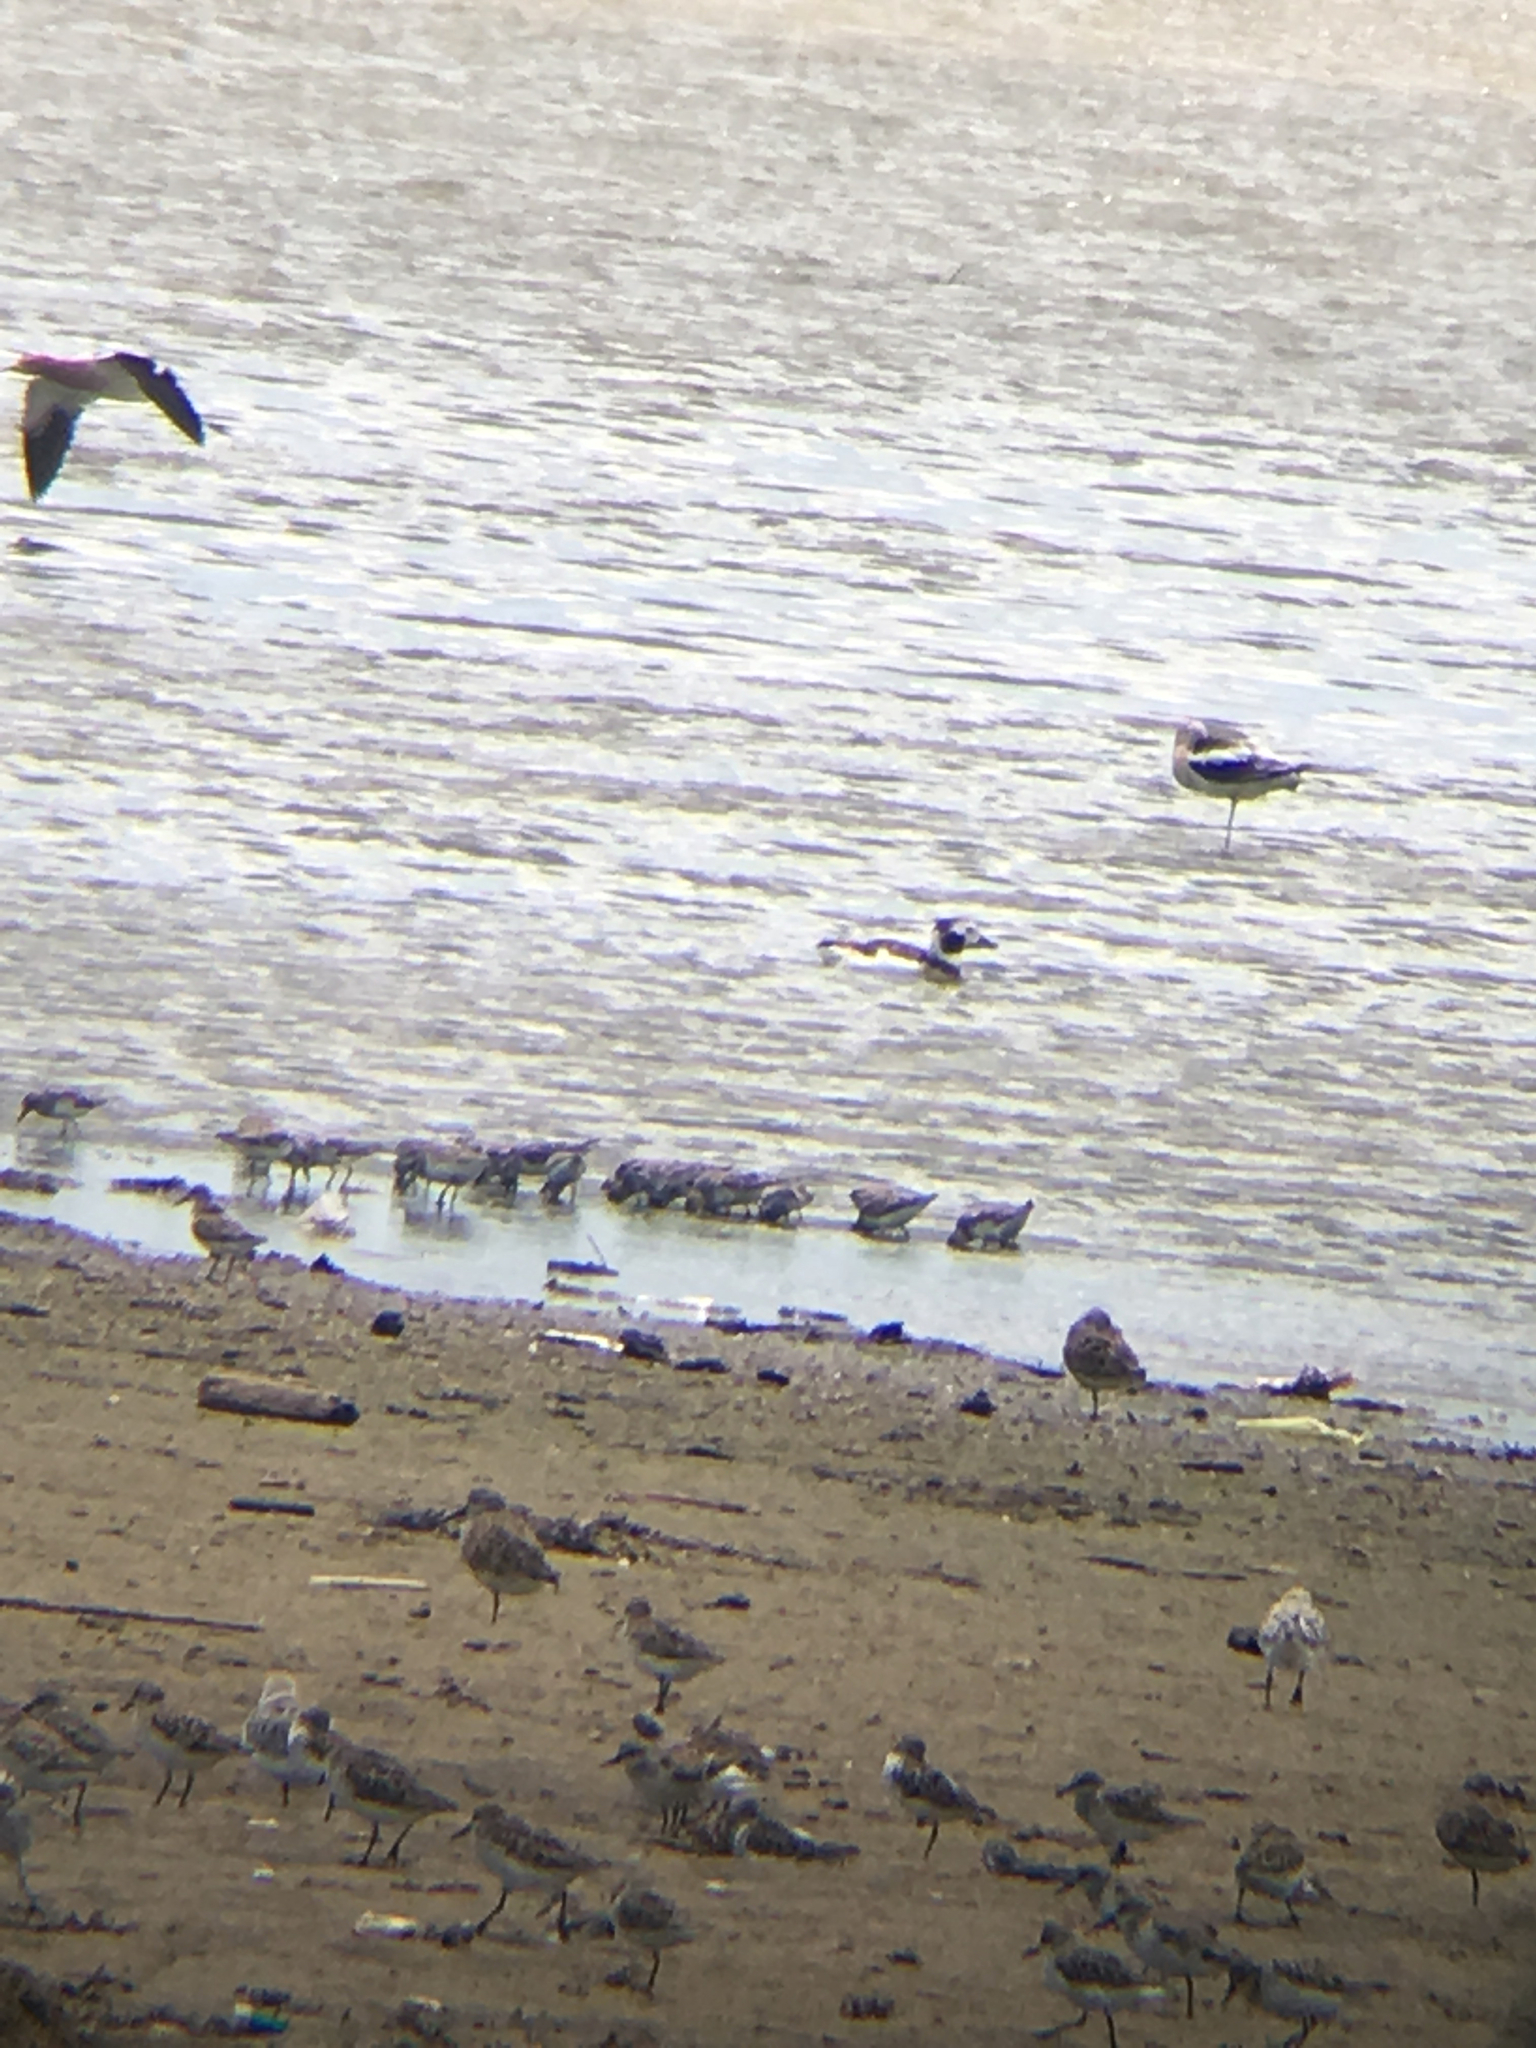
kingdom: Animalia
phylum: Chordata
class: Aves
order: Anseriformes
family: Anatidae
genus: Clangula
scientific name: Clangula hyemalis
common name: Long-tailed duck
